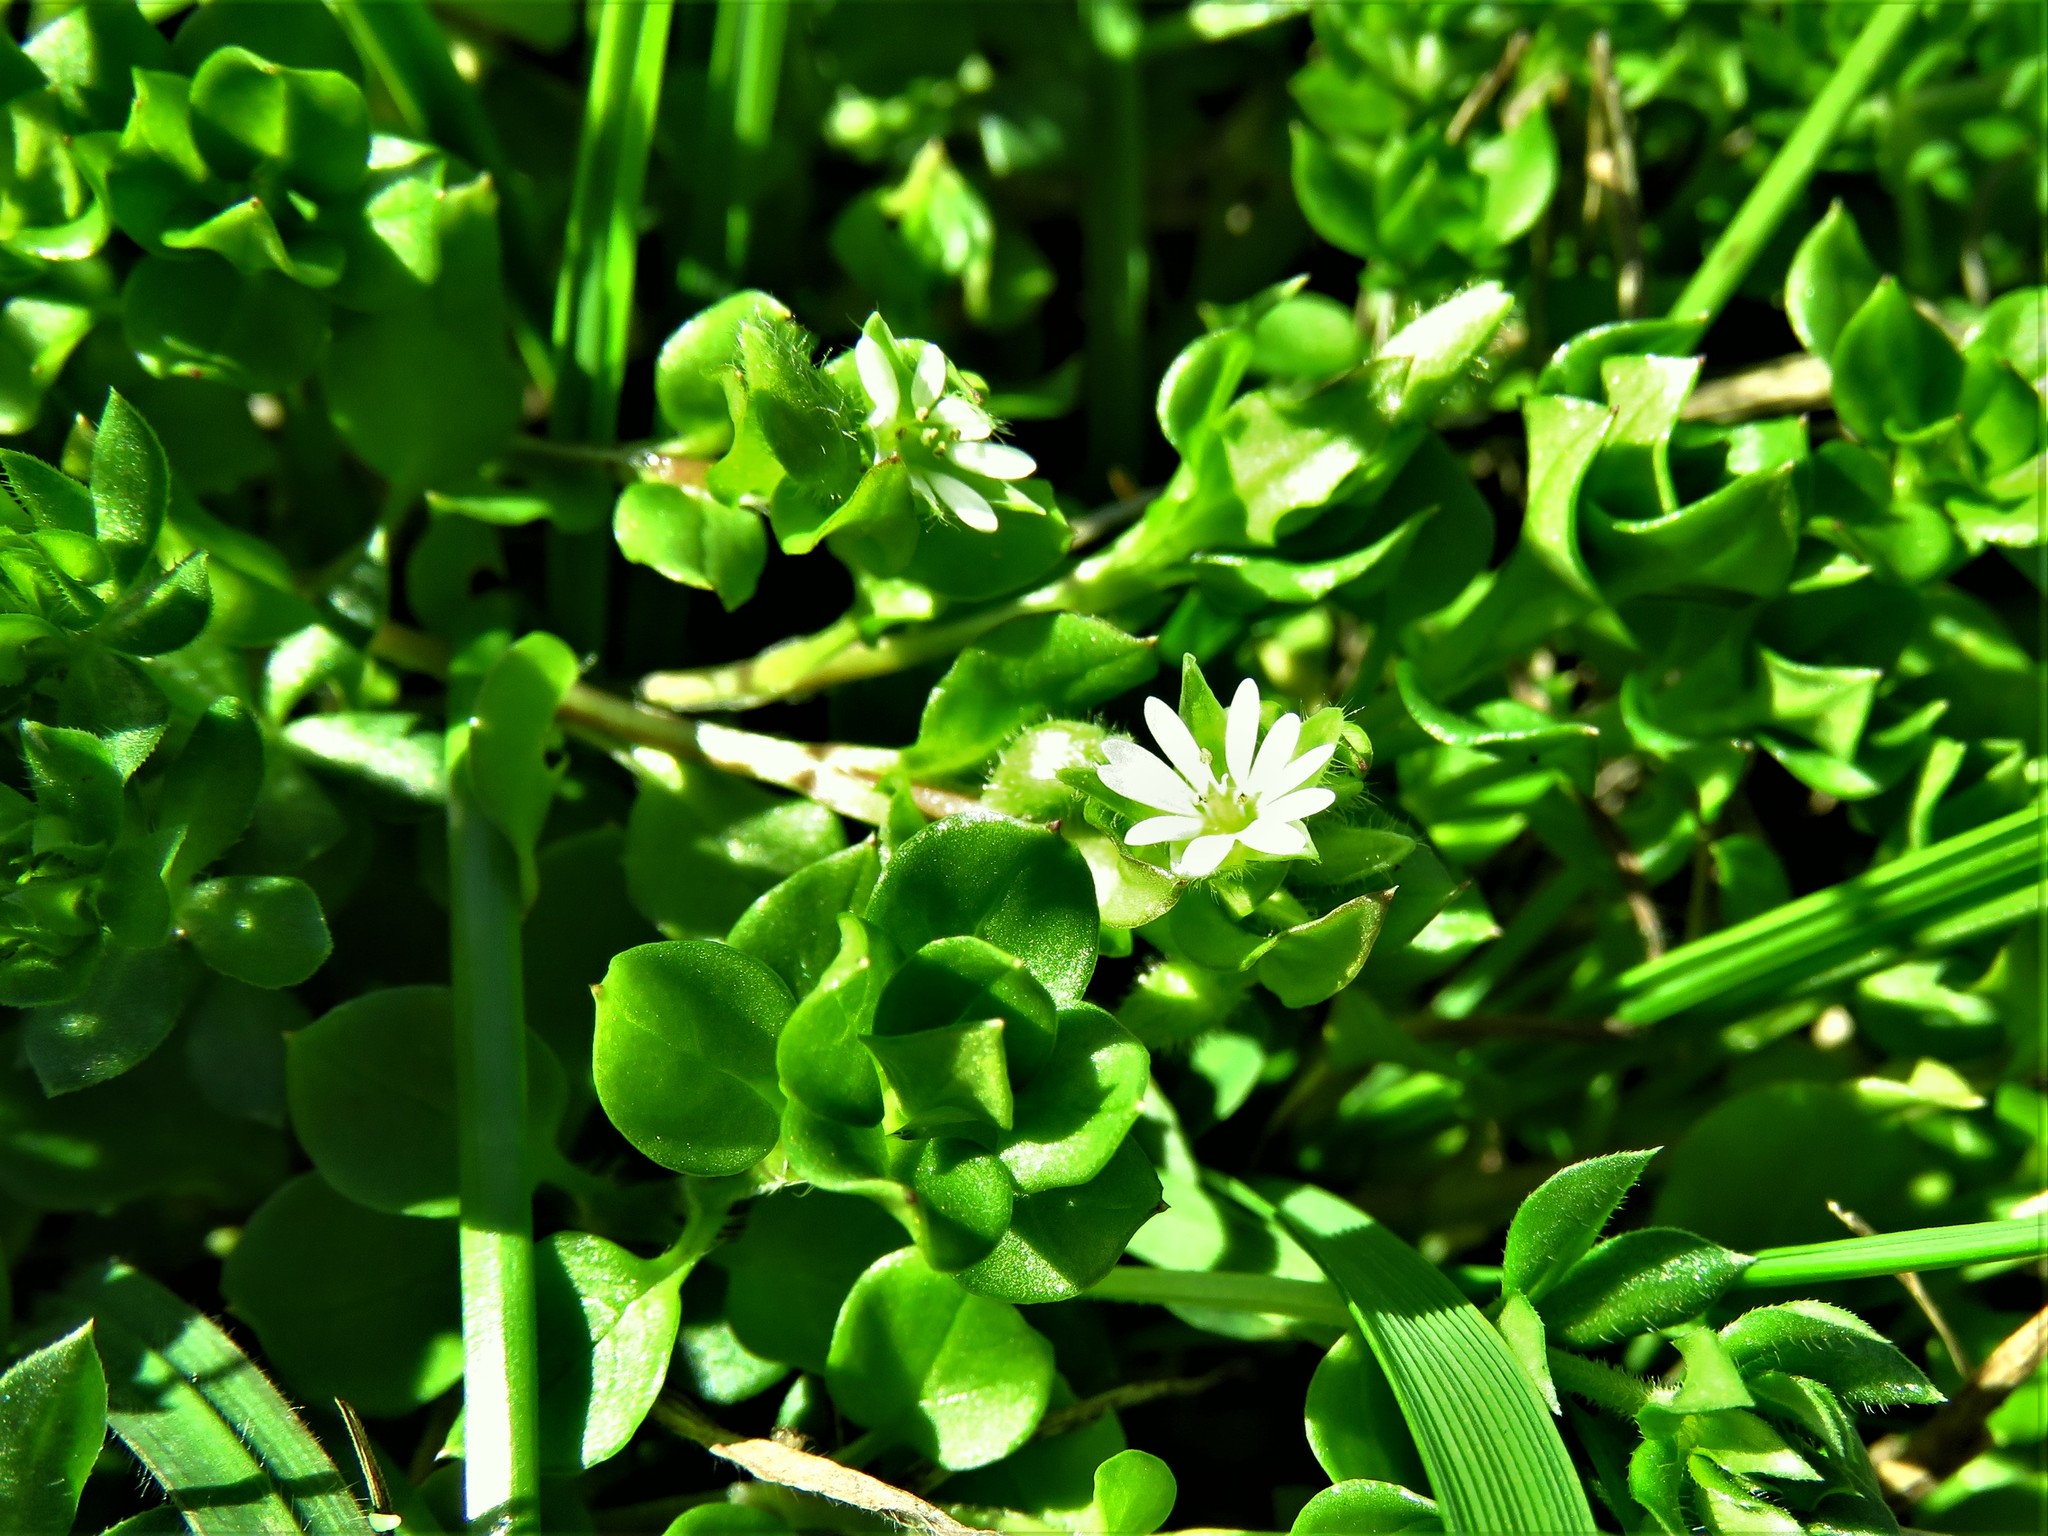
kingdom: Plantae
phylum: Tracheophyta
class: Magnoliopsida
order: Caryophyllales
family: Caryophyllaceae
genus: Stellaria
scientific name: Stellaria media
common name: Common chickweed
